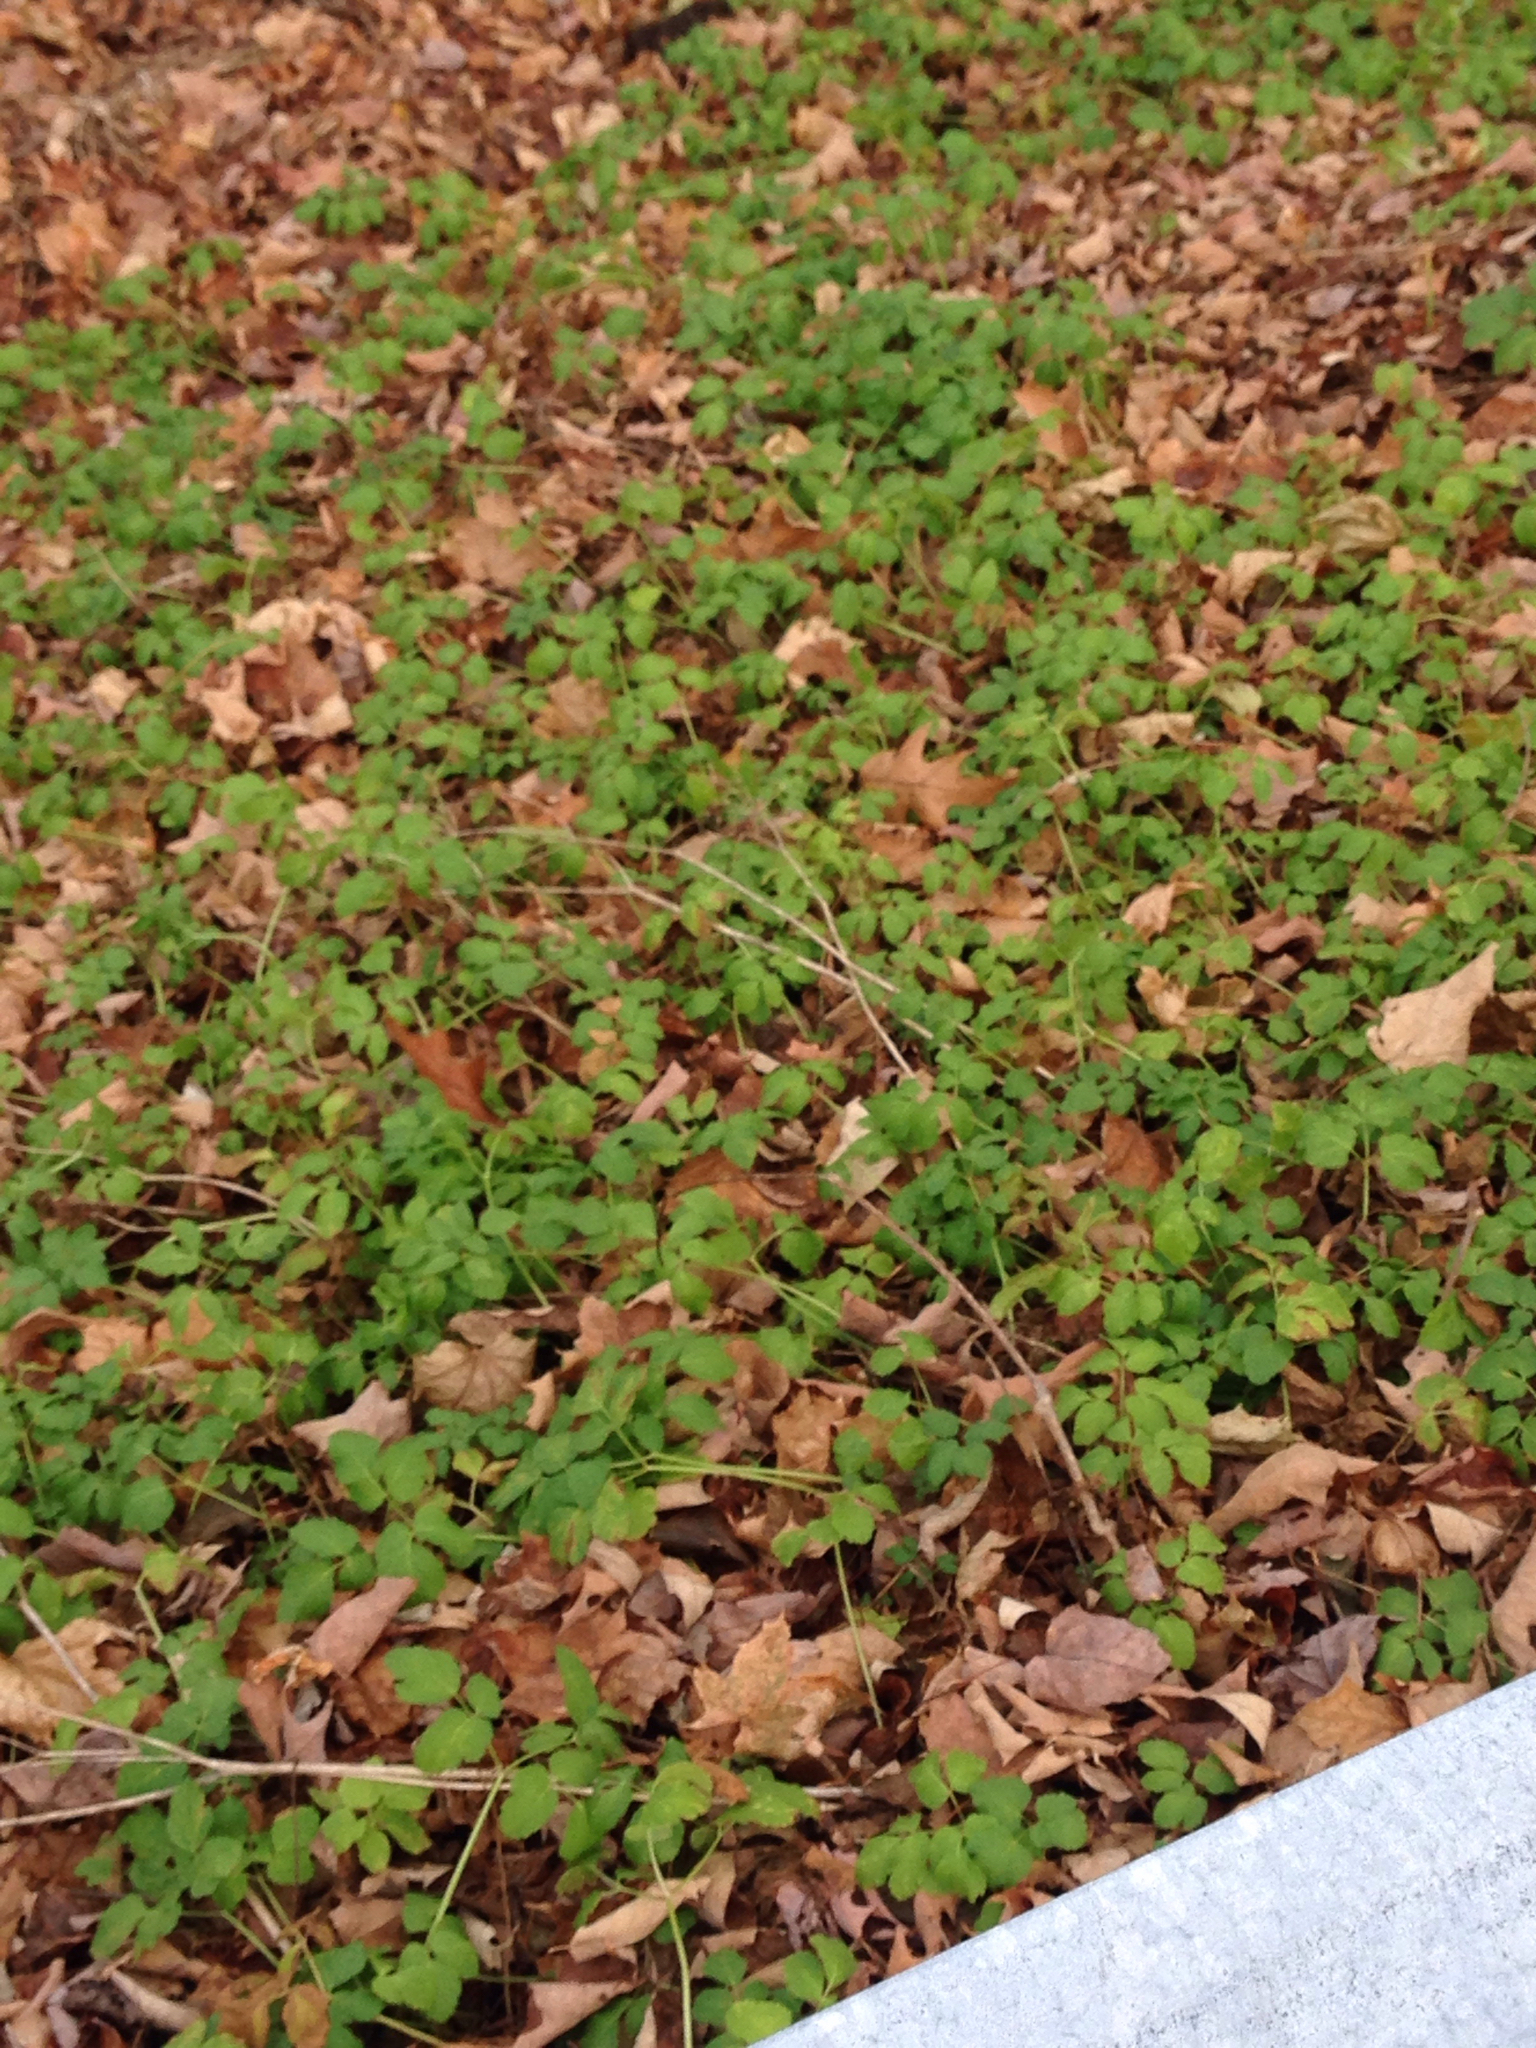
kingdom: Plantae
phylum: Tracheophyta
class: Magnoliopsida
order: Apiales
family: Apiaceae
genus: Aegopodium
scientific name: Aegopodium podagraria
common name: Ground-elder
